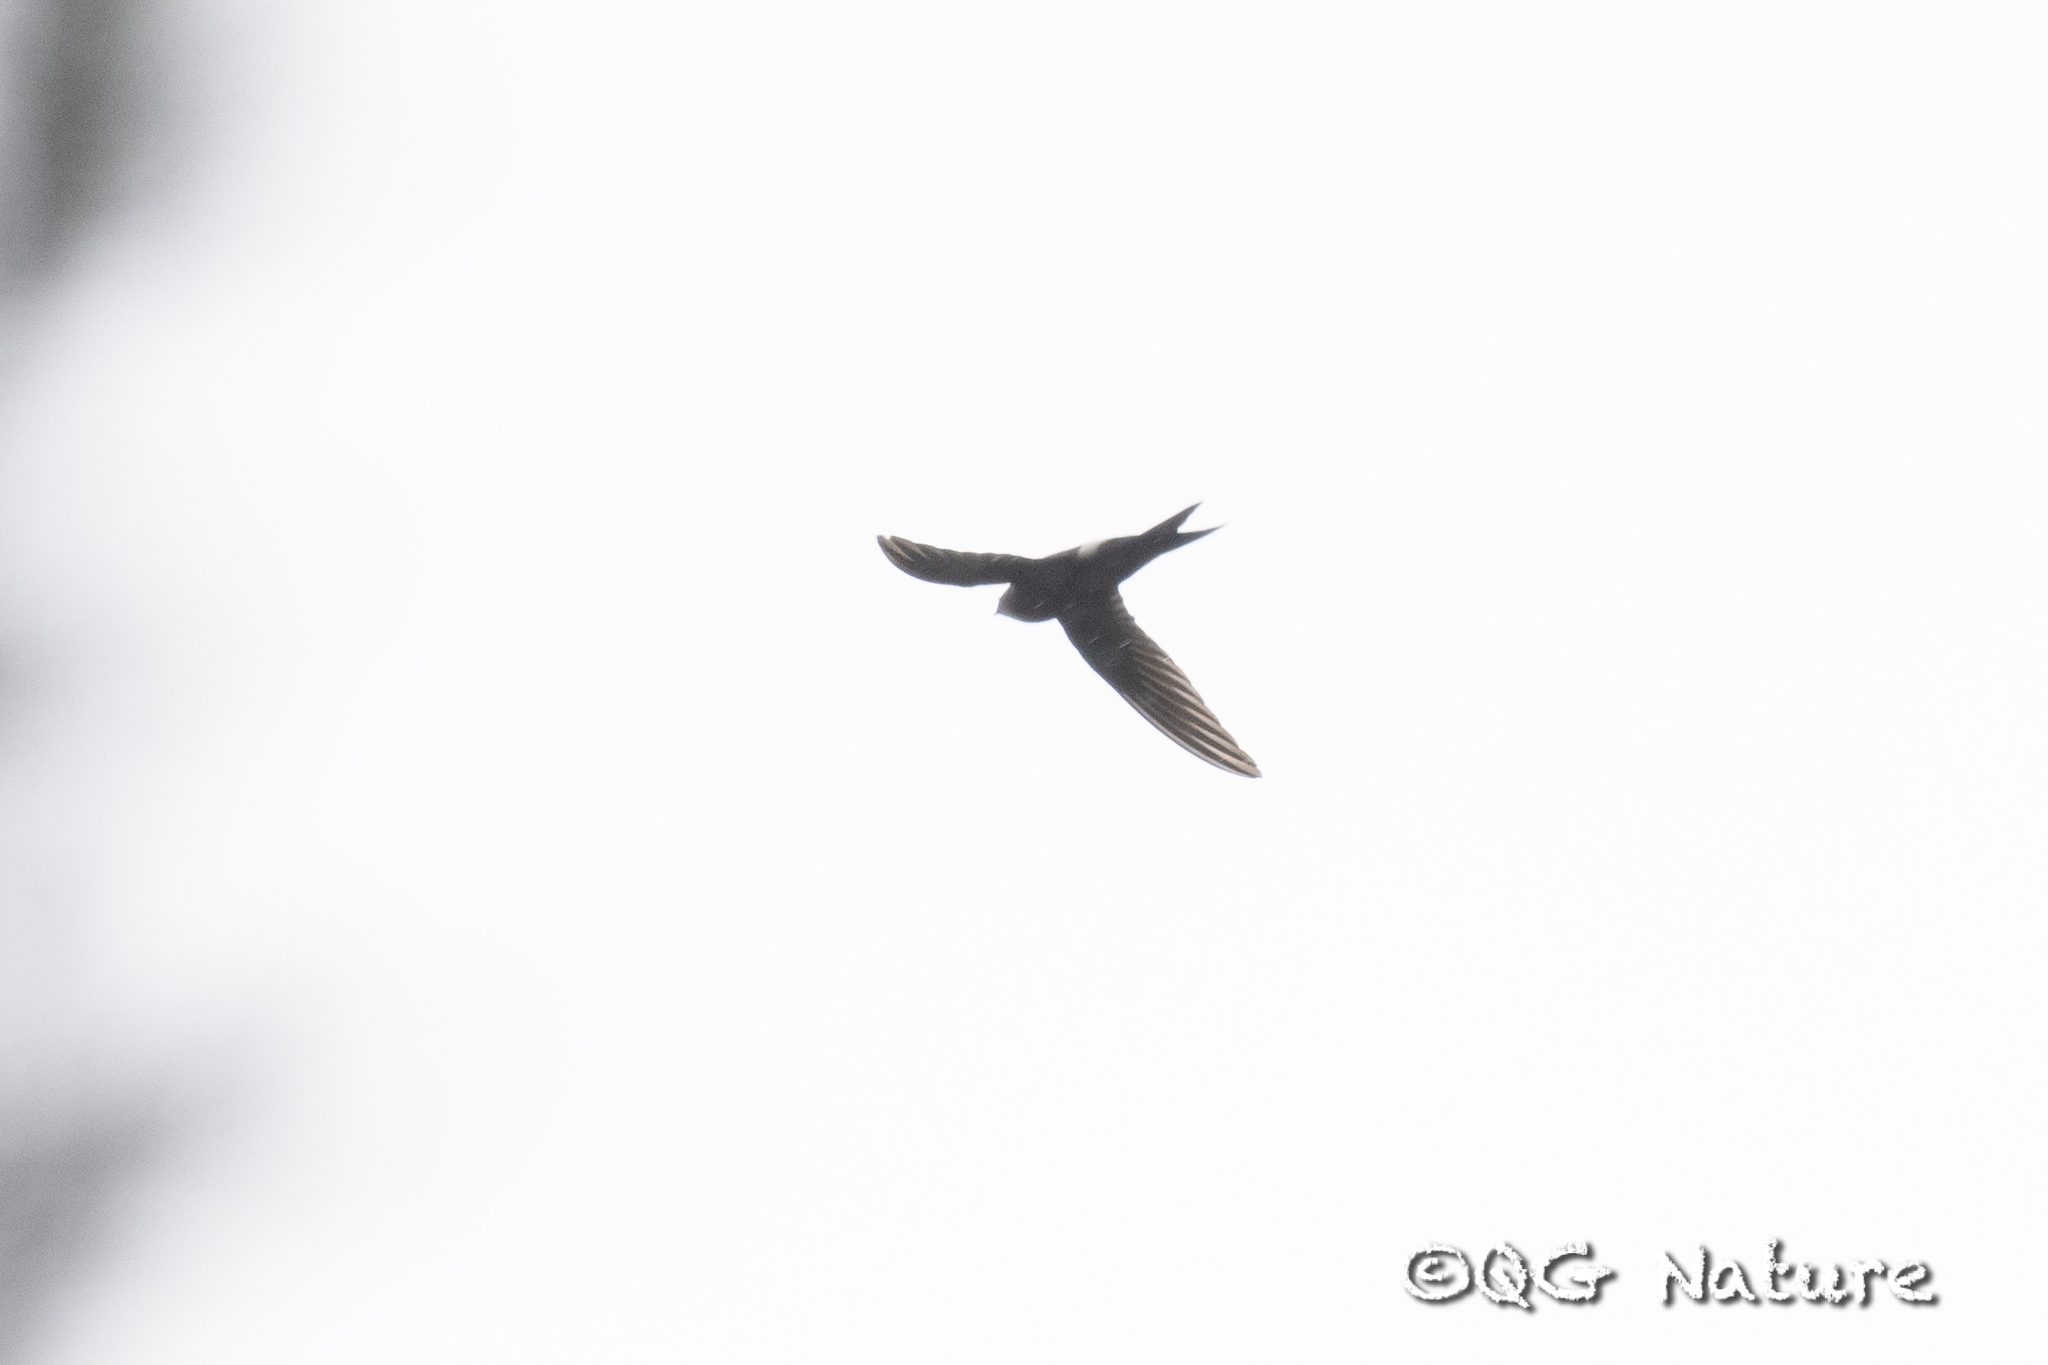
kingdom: Animalia
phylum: Chordata
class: Aves
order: Apodiformes
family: Apodidae
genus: Apus
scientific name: Apus pacificus
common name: Pacific swift
